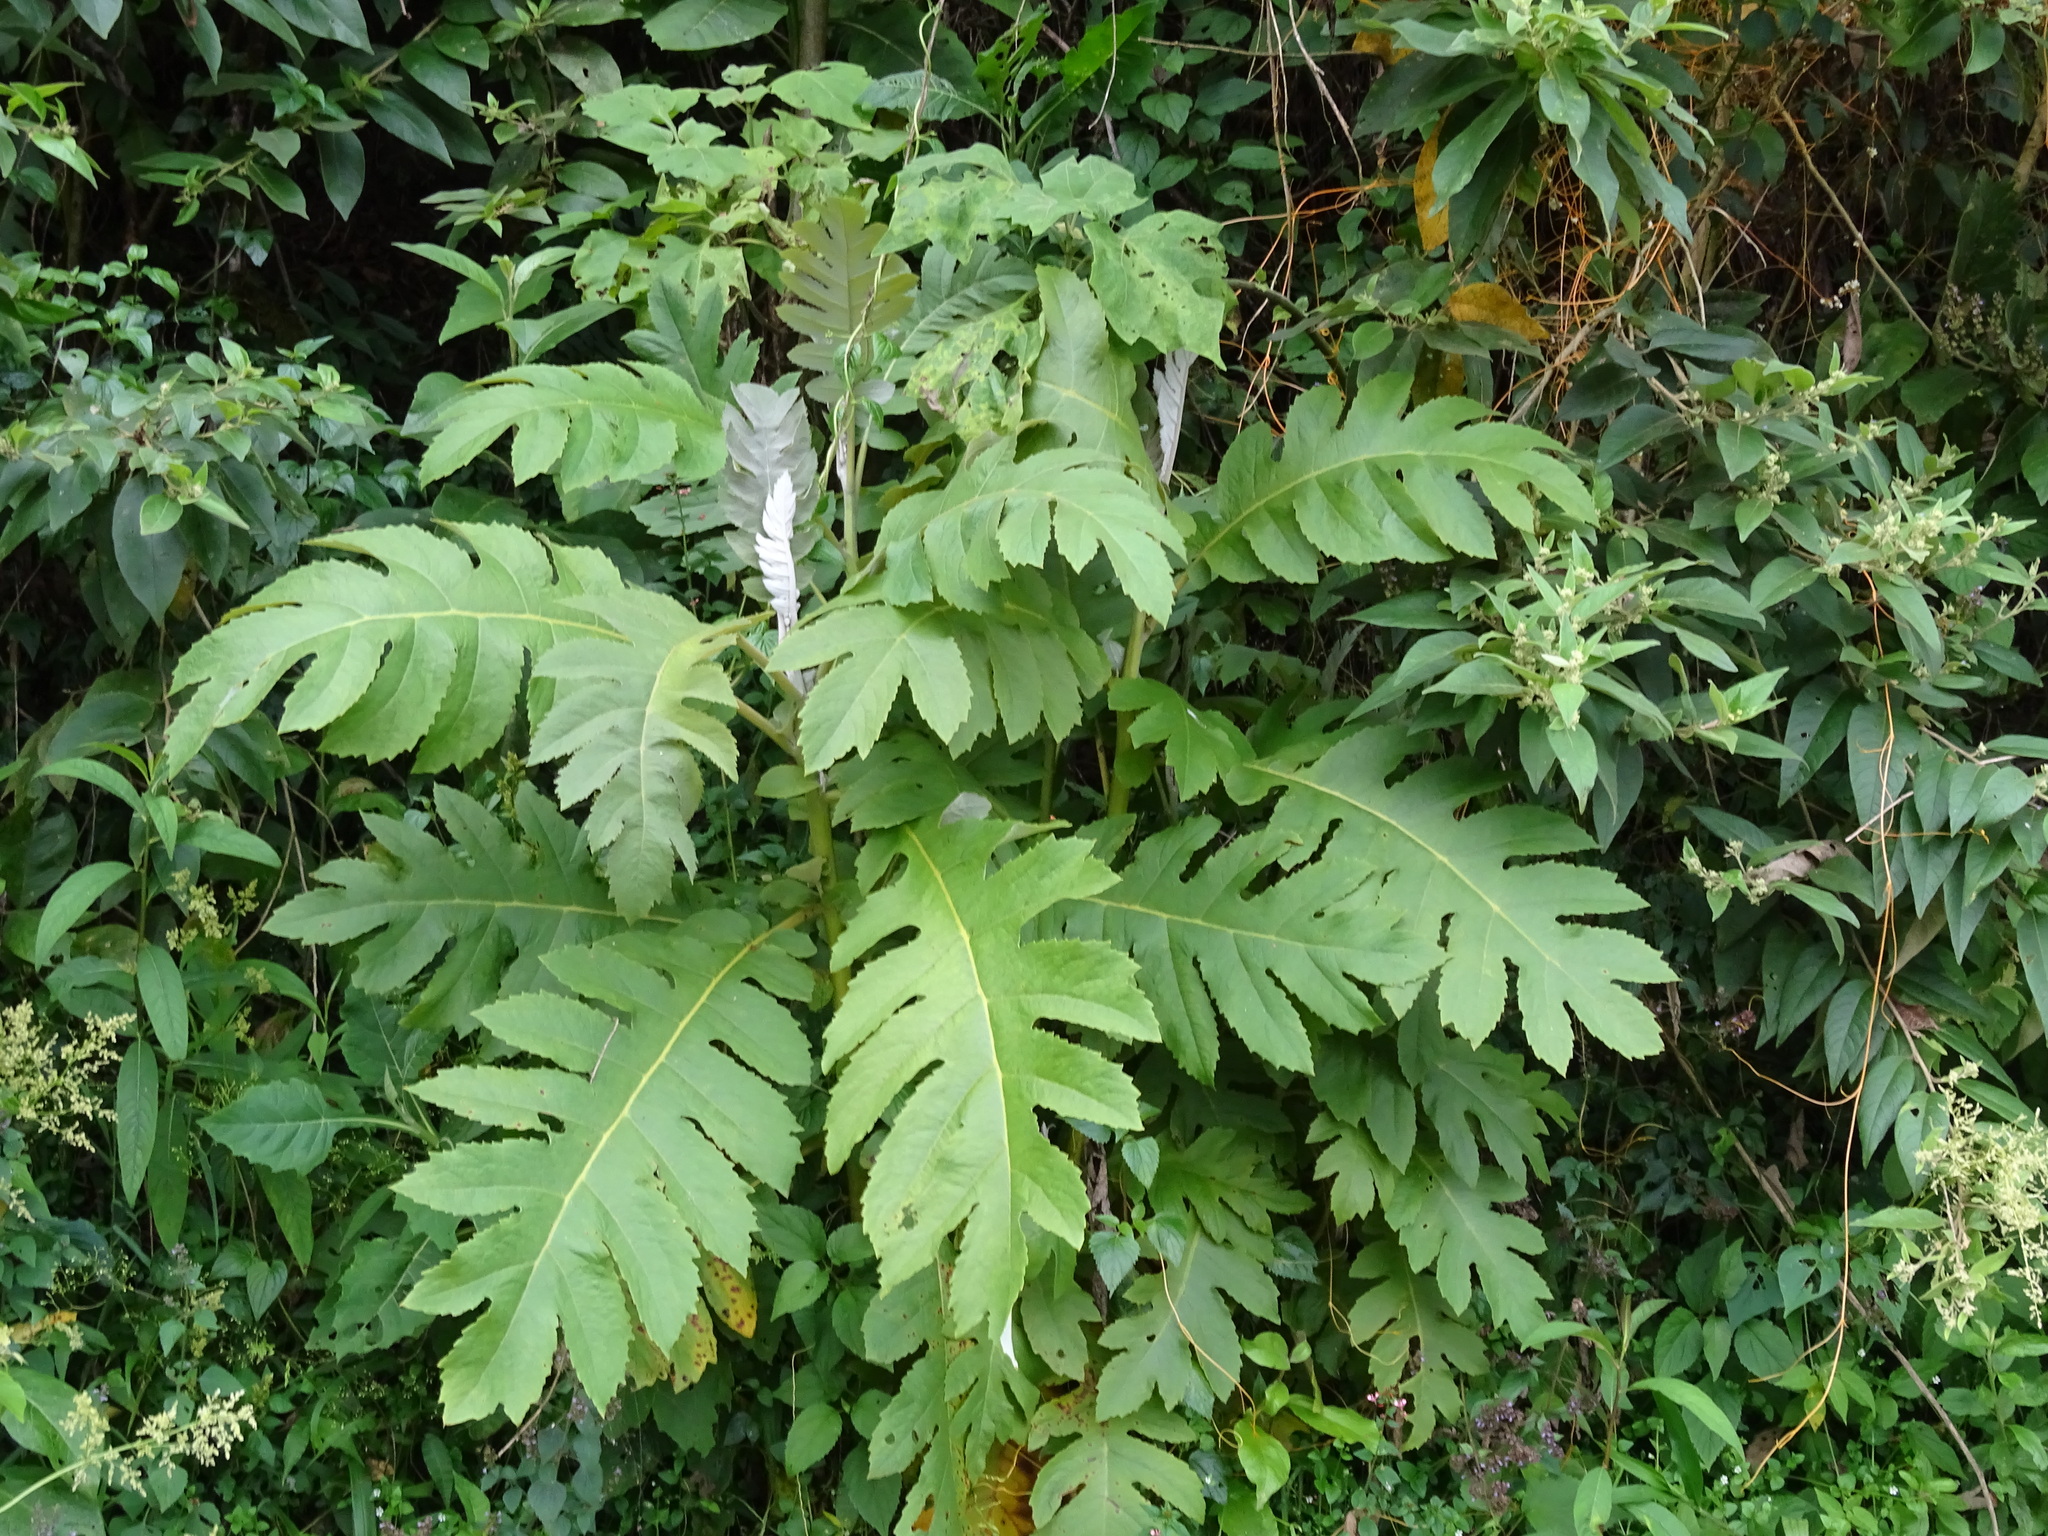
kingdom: Plantae
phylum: Tracheophyta
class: Magnoliopsida
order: Ranunculales
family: Papaveraceae
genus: Bocconia
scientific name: Bocconia frutescens
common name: Tree poppy
